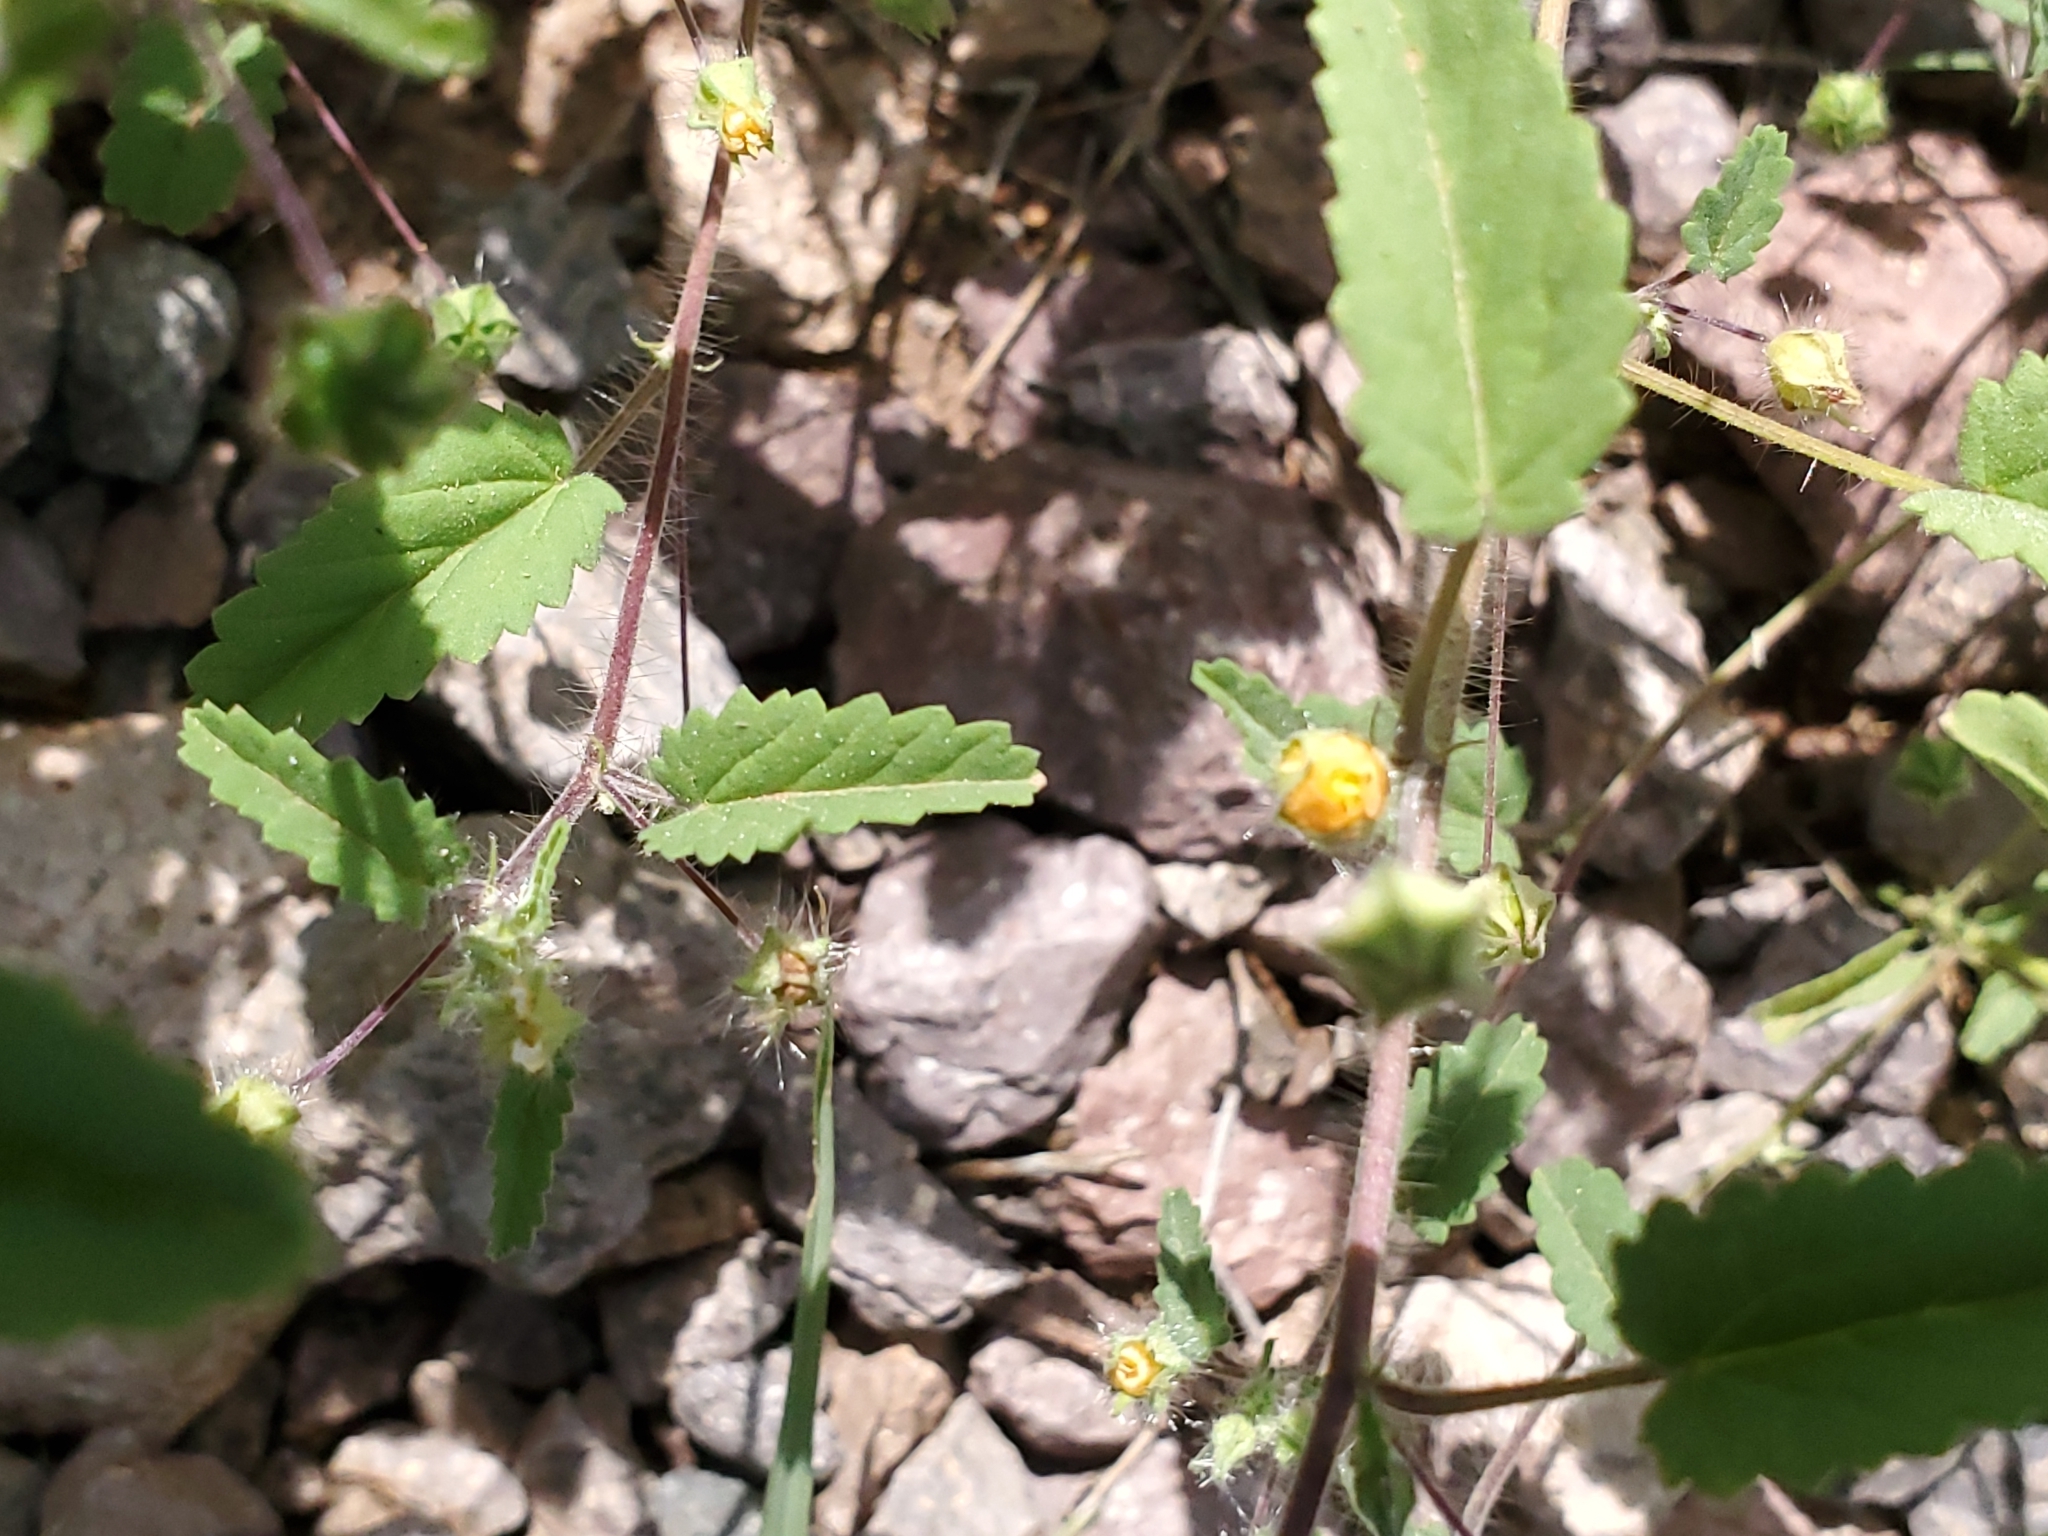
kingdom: Plantae
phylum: Tracheophyta
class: Magnoliopsida
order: Malvales
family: Malvaceae
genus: Sida
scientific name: Sida abutilifolia
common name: Spreading fanpetals
